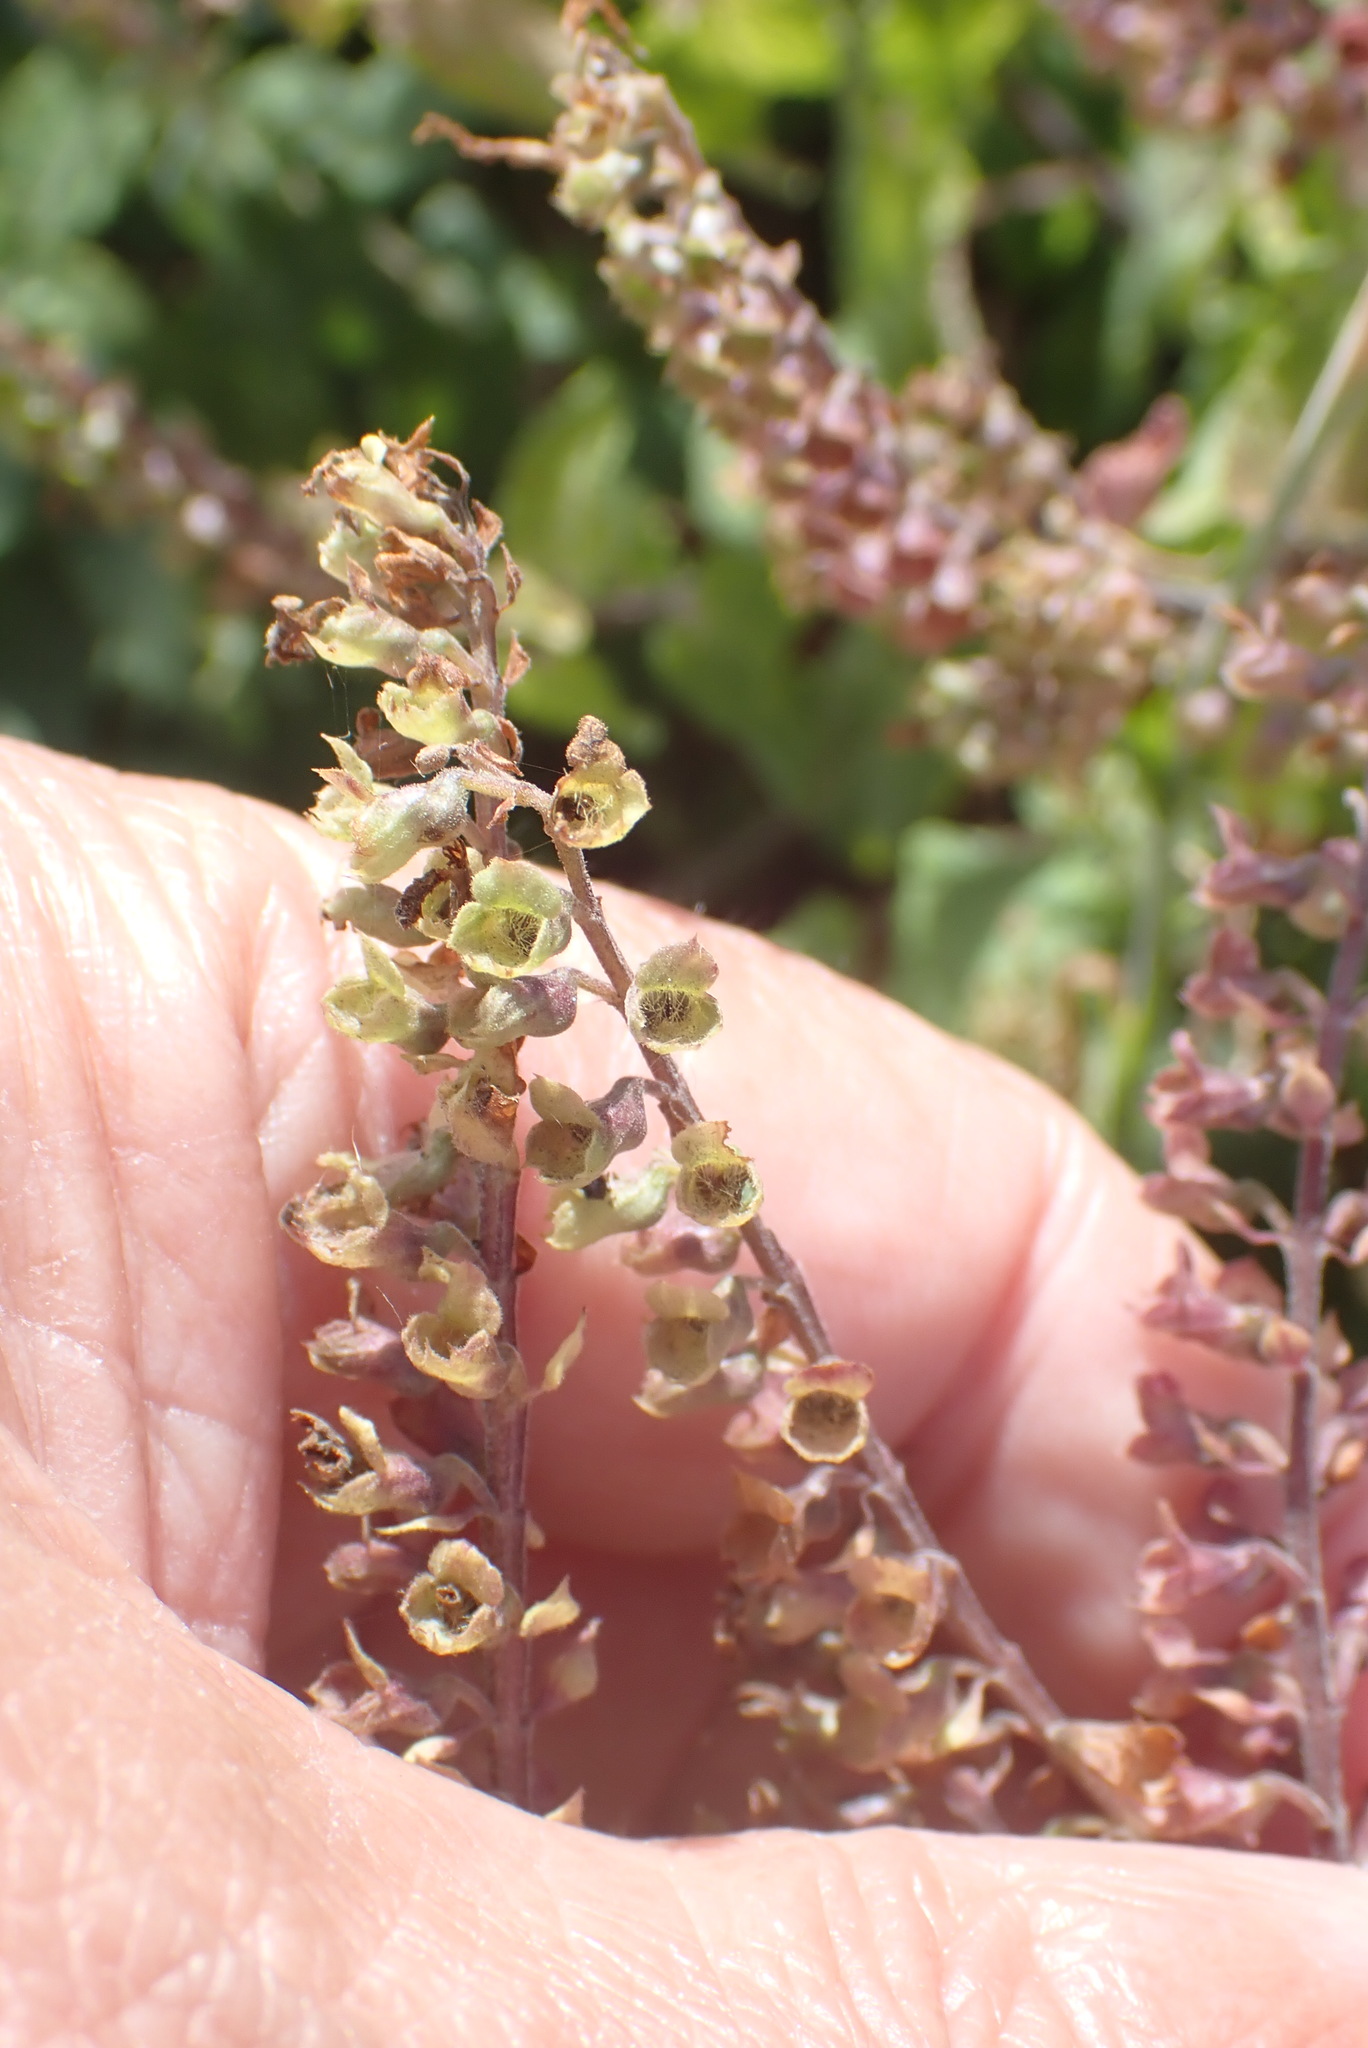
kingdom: Plantae
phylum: Tracheophyta
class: Magnoliopsida
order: Lamiales
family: Lamiaceae
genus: Teucrium
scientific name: Teucrium scorodonia
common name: Woodland germander
